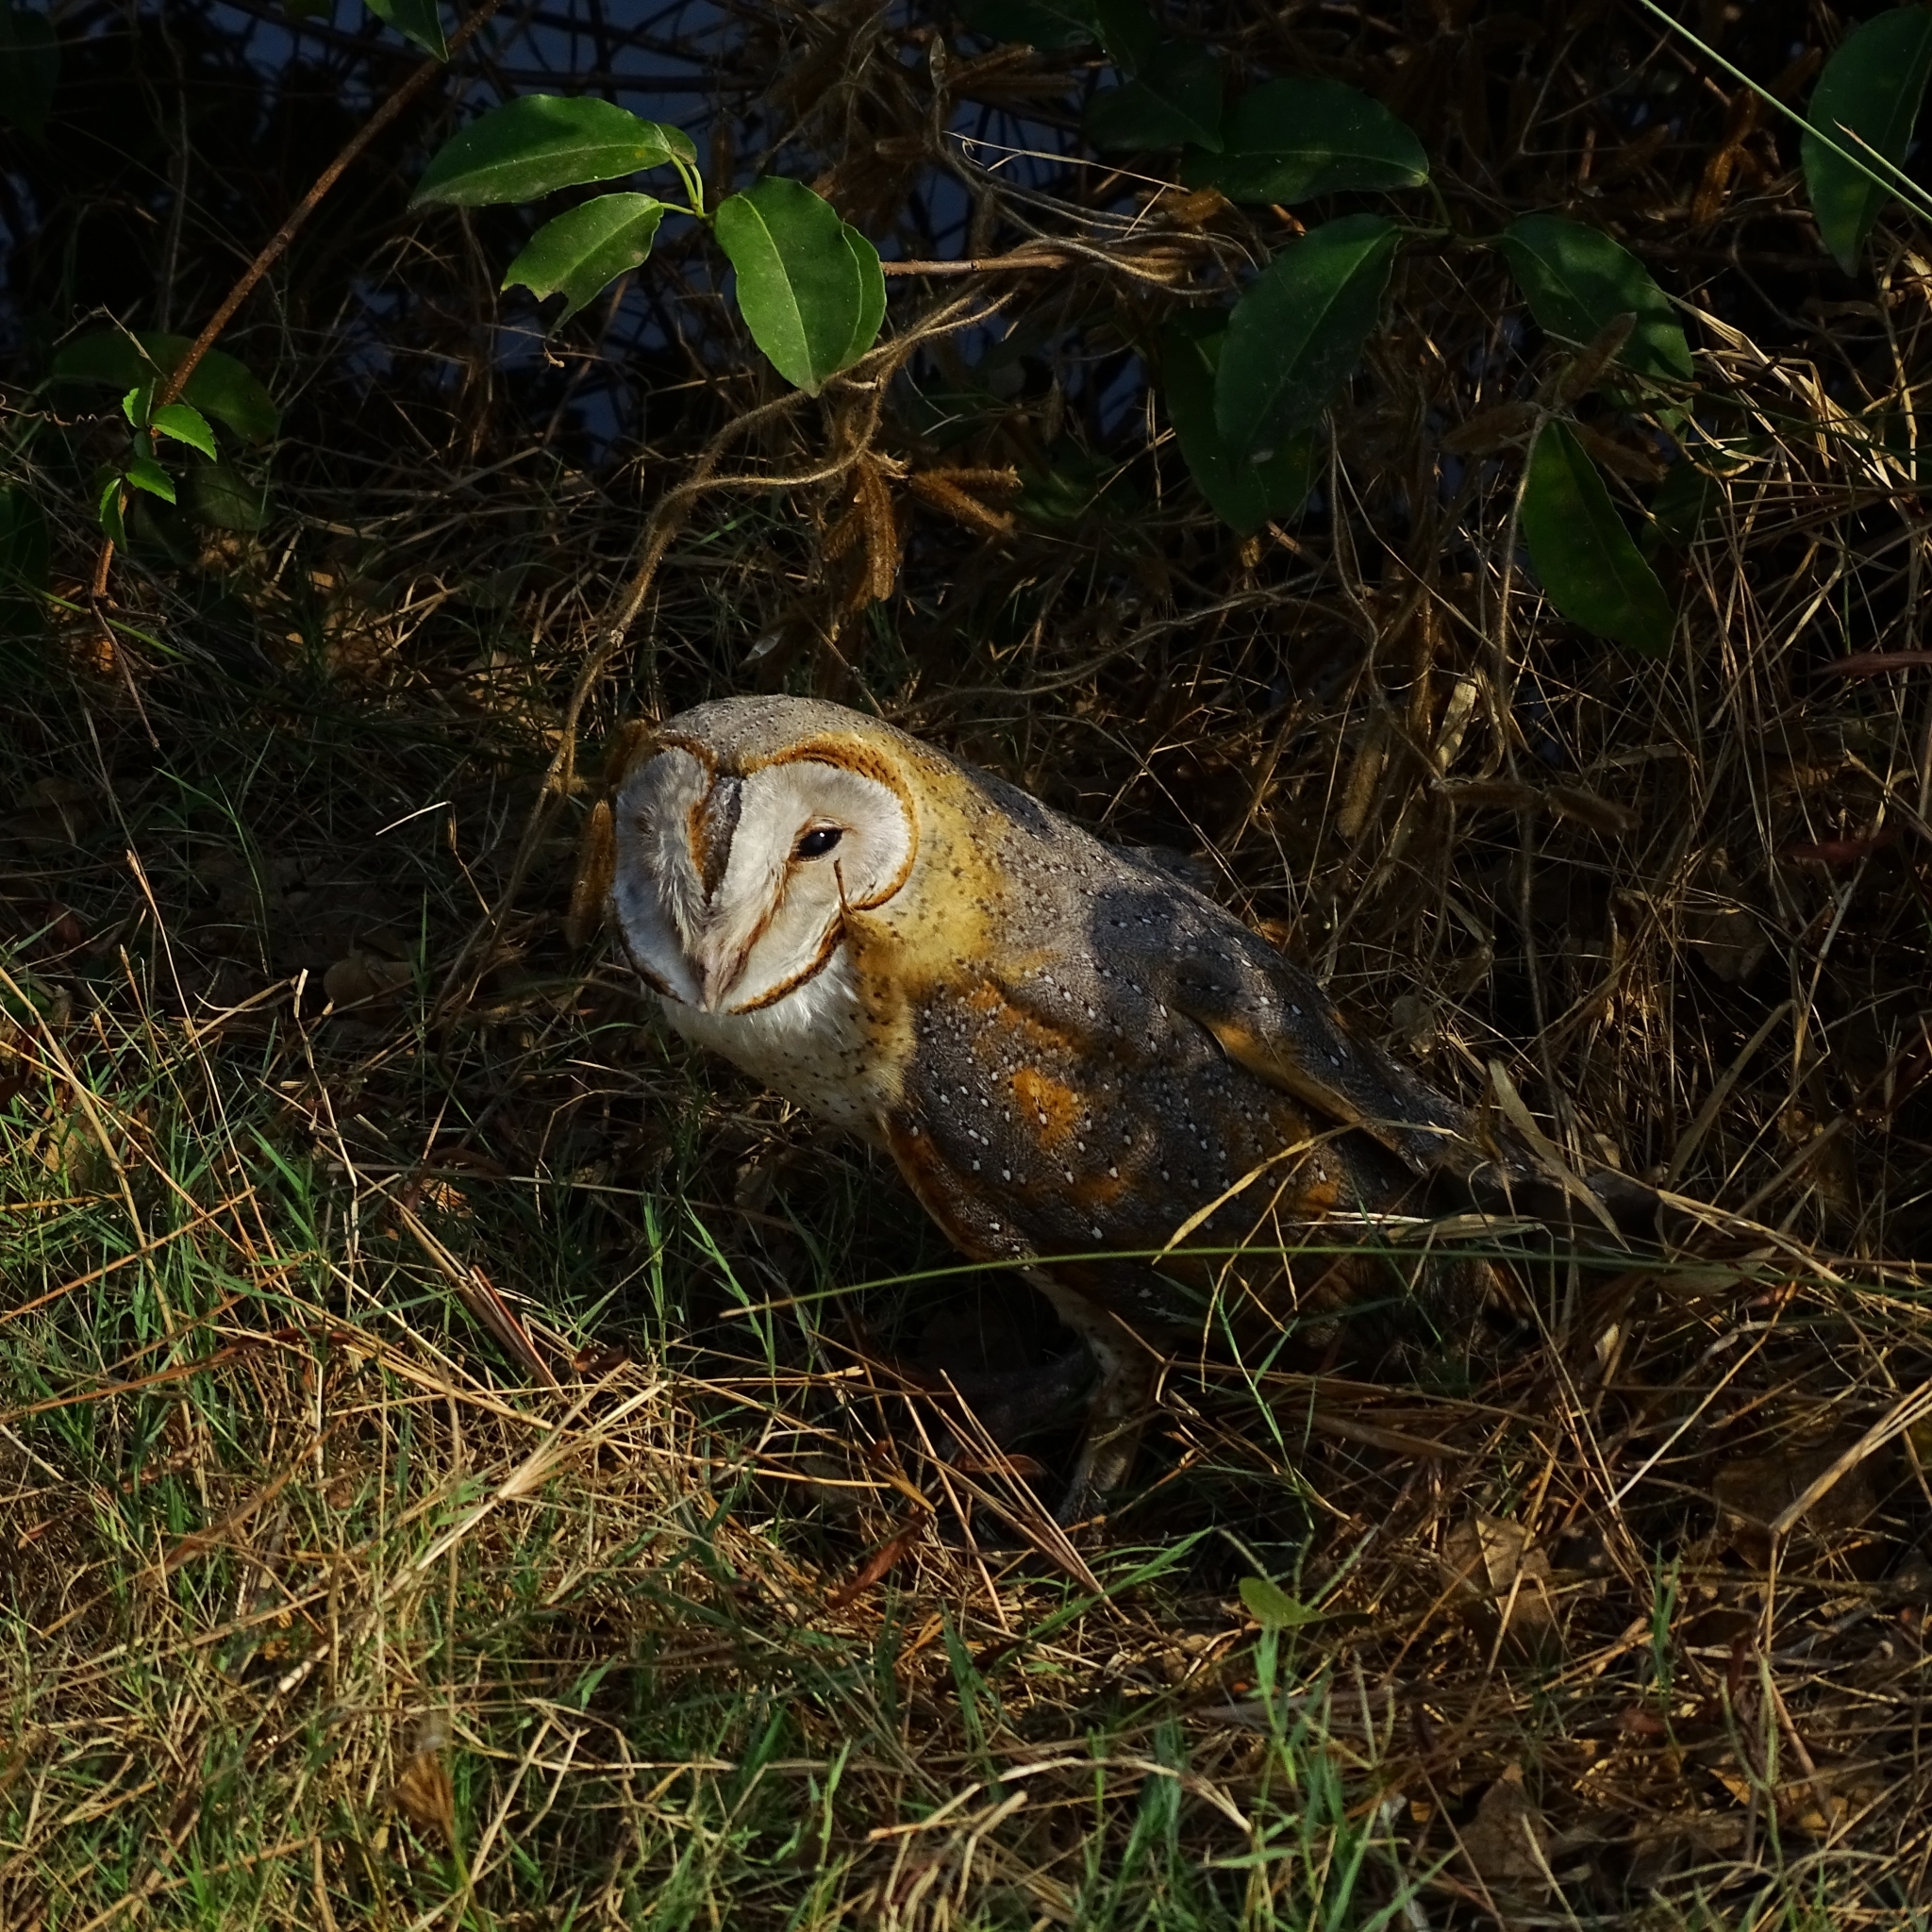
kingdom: Animalia
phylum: Chordata
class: Aves
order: Strigiformes
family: Tytonidae
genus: Tyto
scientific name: Tyto alba
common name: Barn owl
